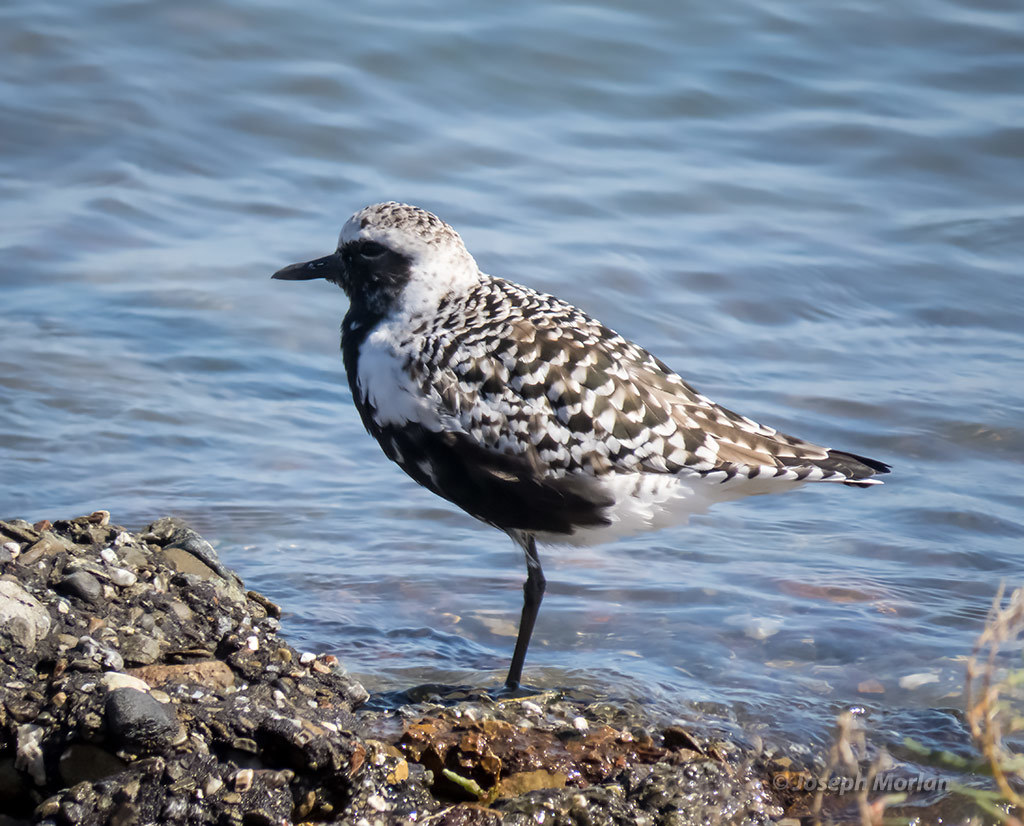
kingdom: Animalia
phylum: Chordata
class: Aves
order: Charadriiformes
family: Charadriidae
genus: Pluvialis
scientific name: Pluvialis squatarola
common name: Grey plover
